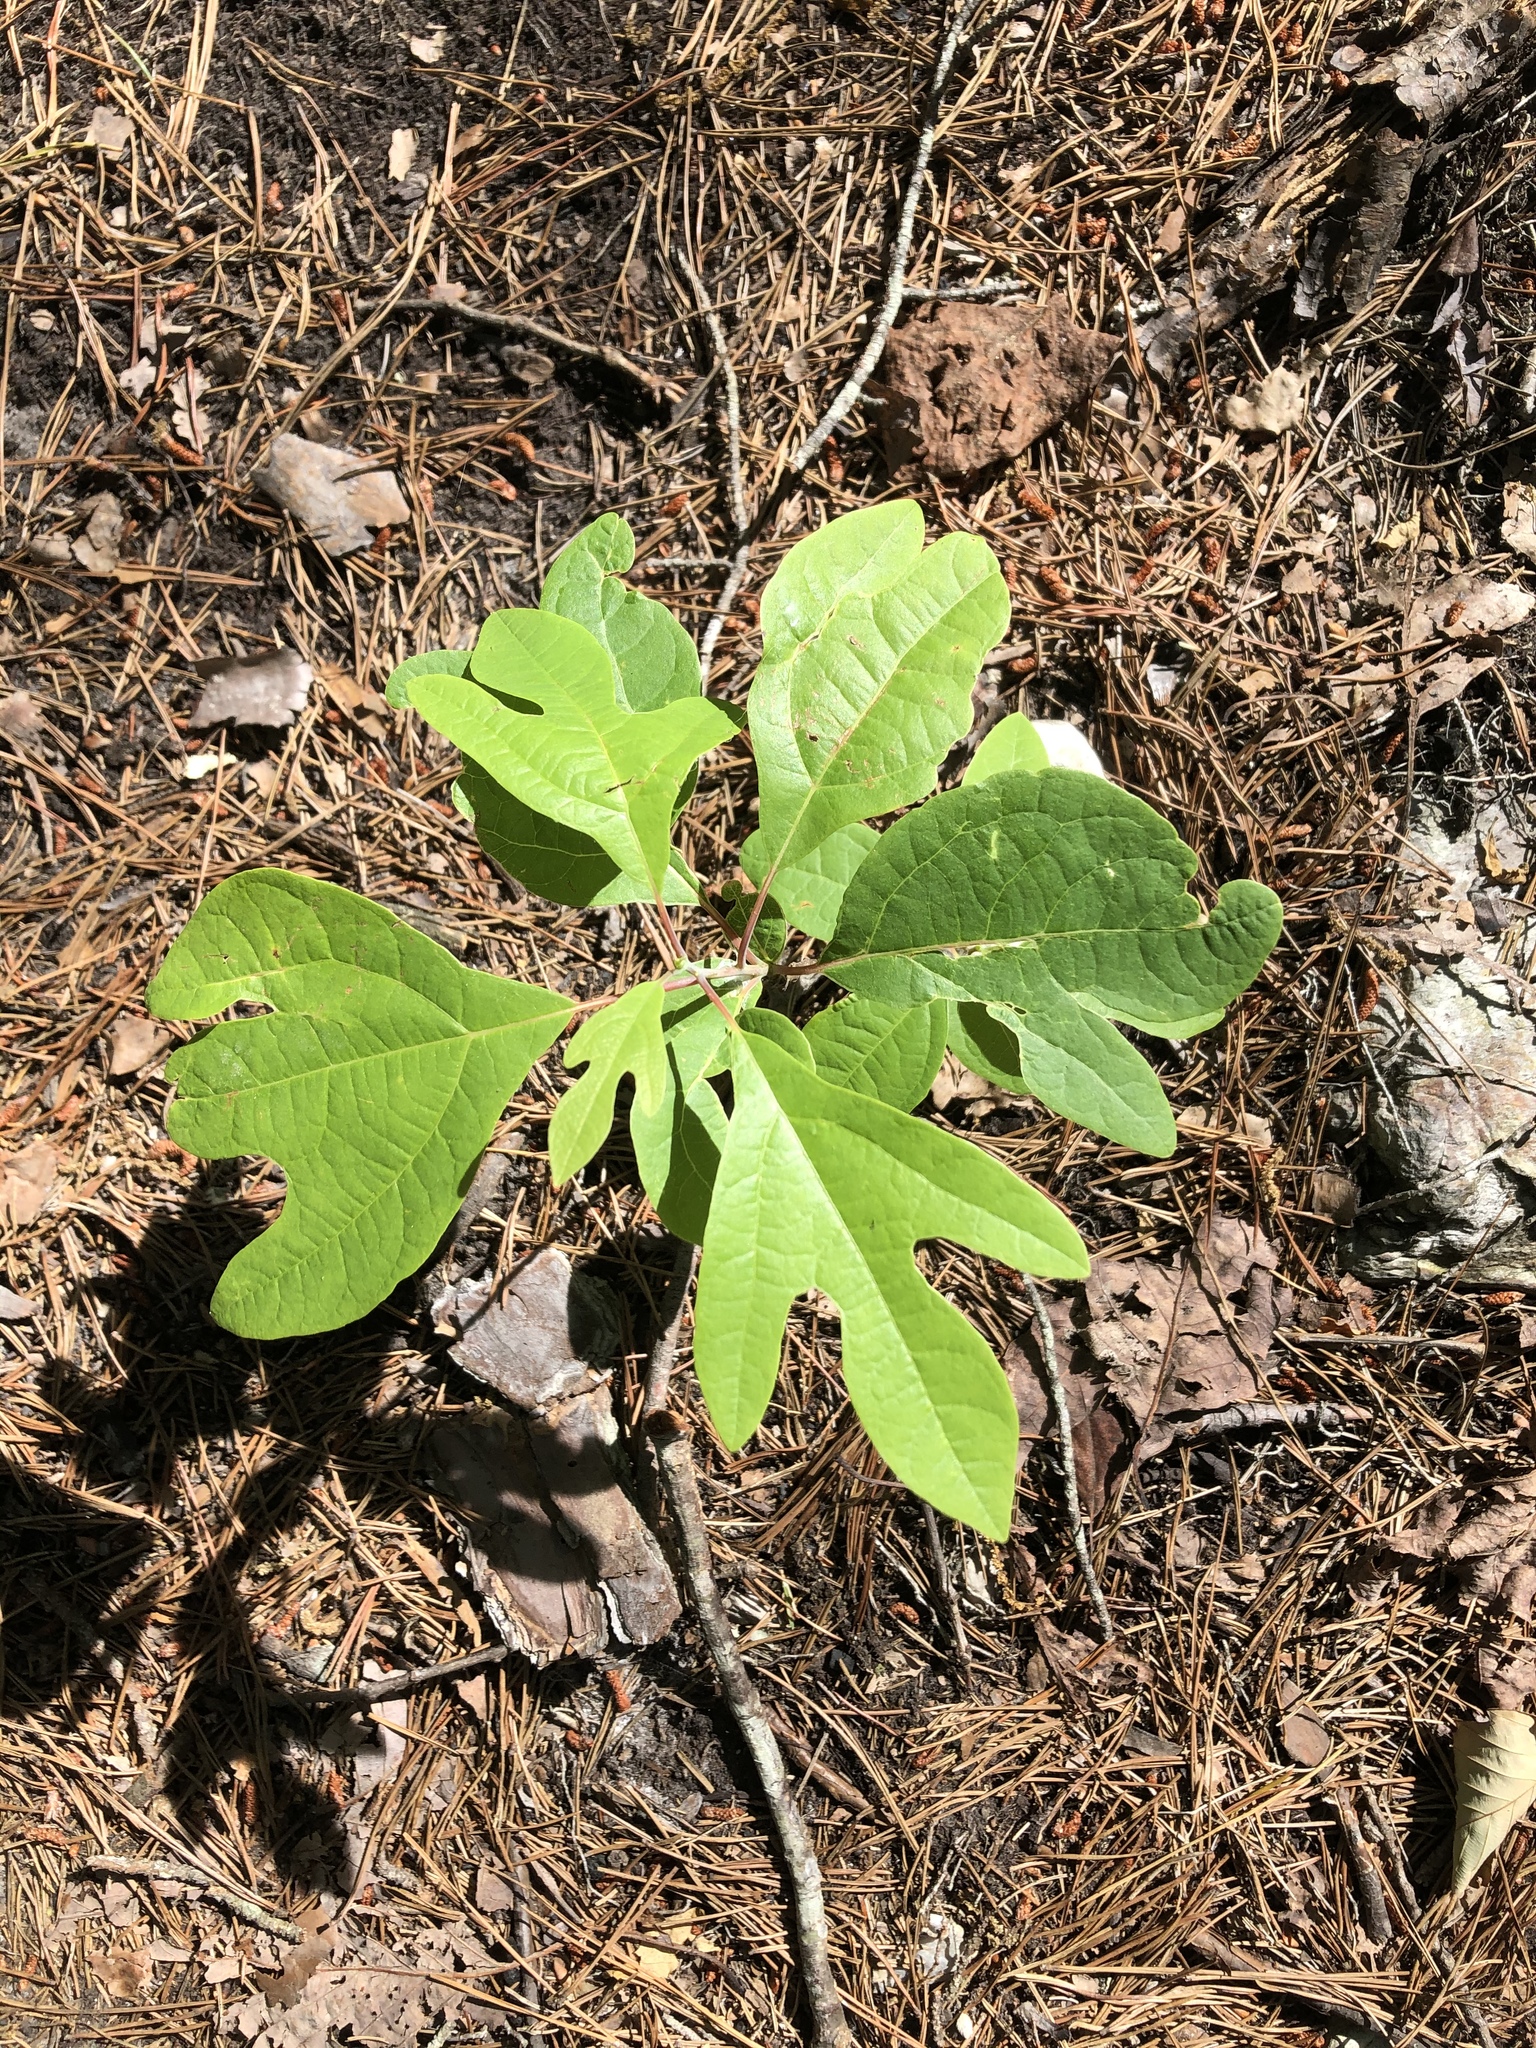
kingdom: Plantae
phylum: Tracheophyta
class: Magnoliopsida
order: Laurales
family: Lauraceae
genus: Sassafras
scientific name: Sassafras albidum
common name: Sassafras
